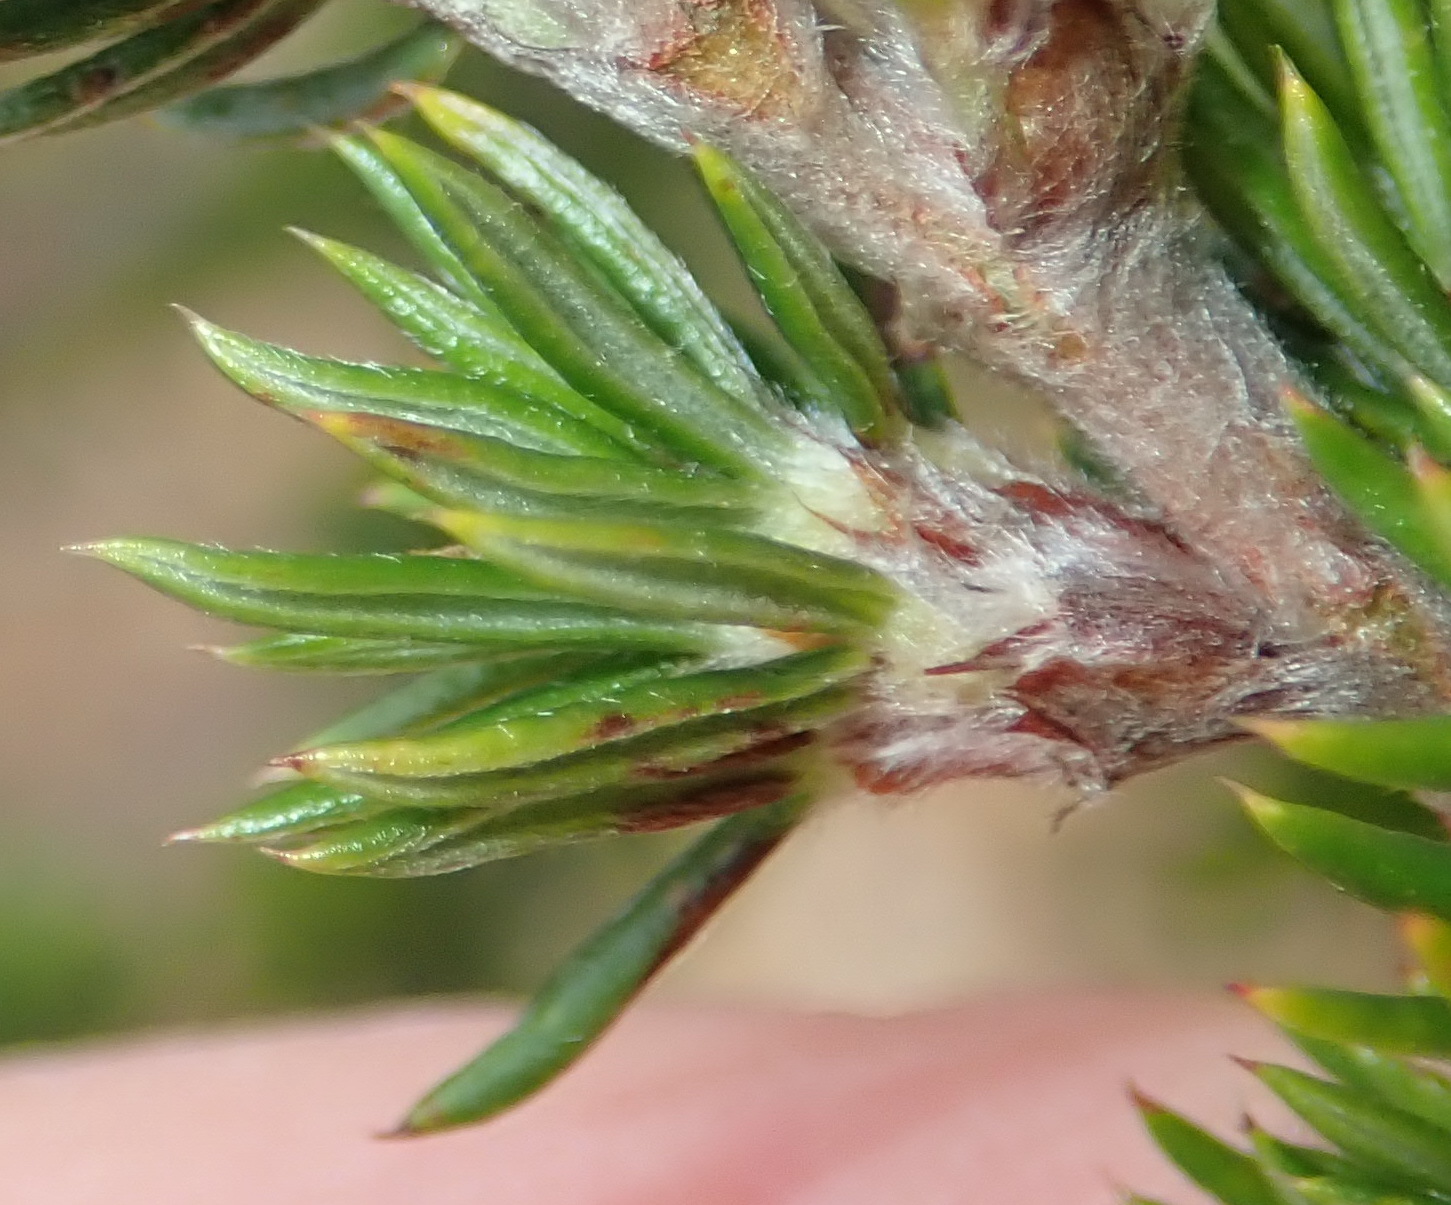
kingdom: Plantae
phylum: Tracheophyta
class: Magnoliopsida
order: Rosales
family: Rosaceae
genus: Cliffortia
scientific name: Cliffortia stricta
